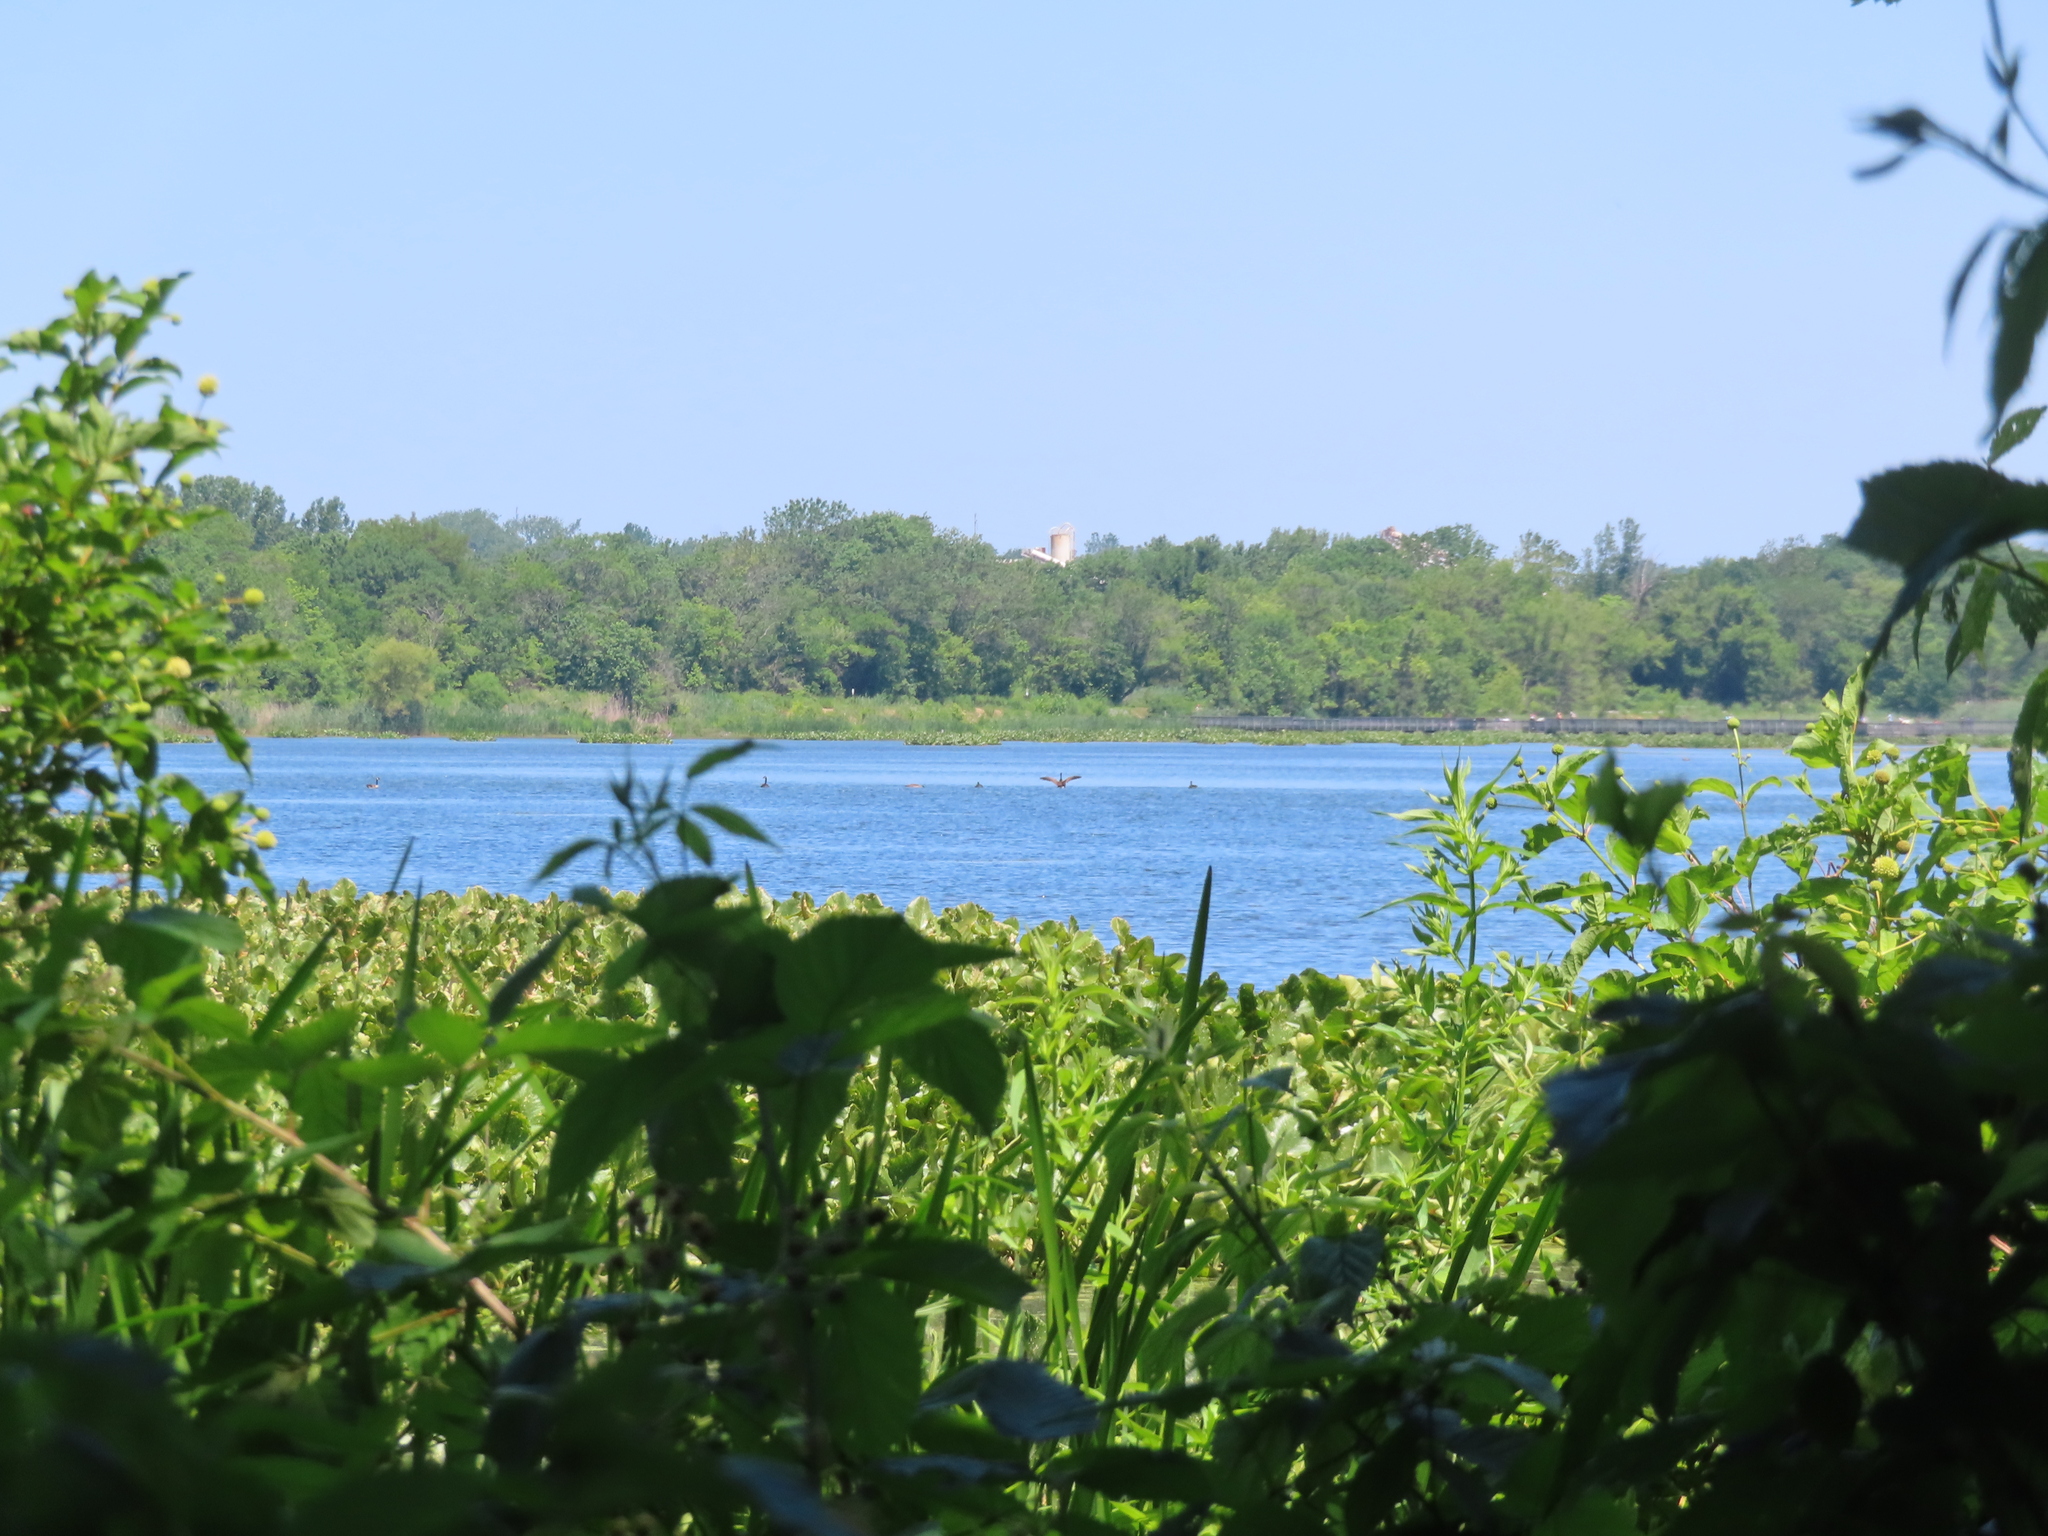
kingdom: Animalia
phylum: Chordata
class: Aves
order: Anseriformes
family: Anatidae
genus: Branta
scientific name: Branta canadensis
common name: Canada goose
